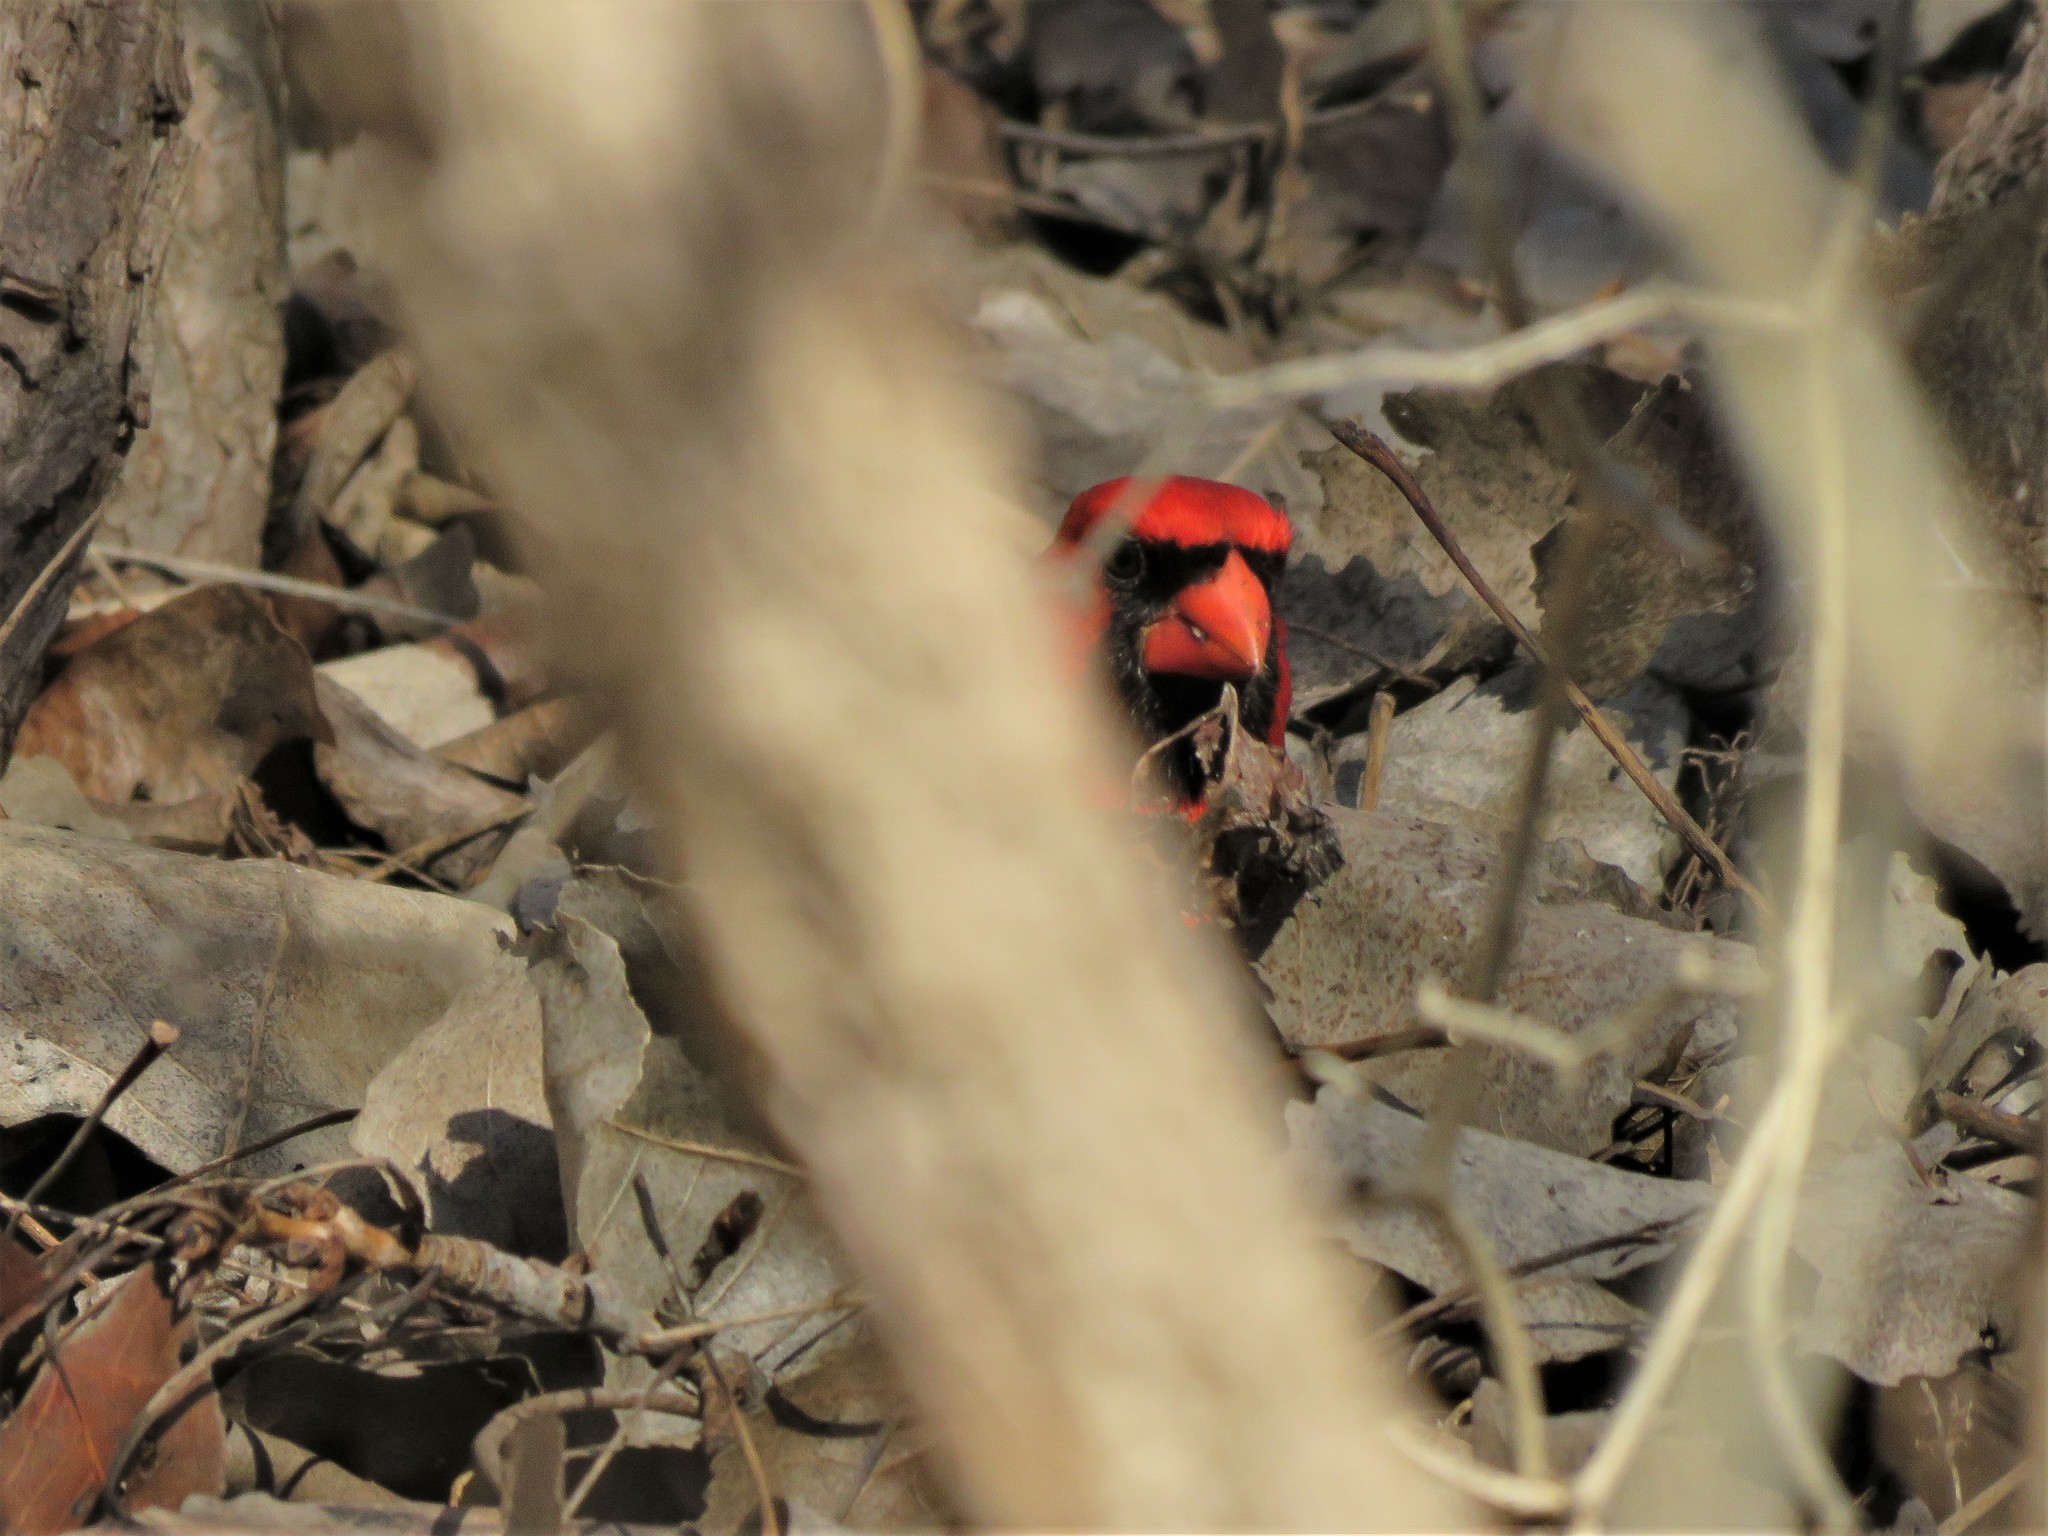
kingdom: Animalia
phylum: Chordata
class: Aves
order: Passeriformes
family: Cardinalidae
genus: Cardinalis
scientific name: Cardinalis cardinalis
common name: Northern cardinal
